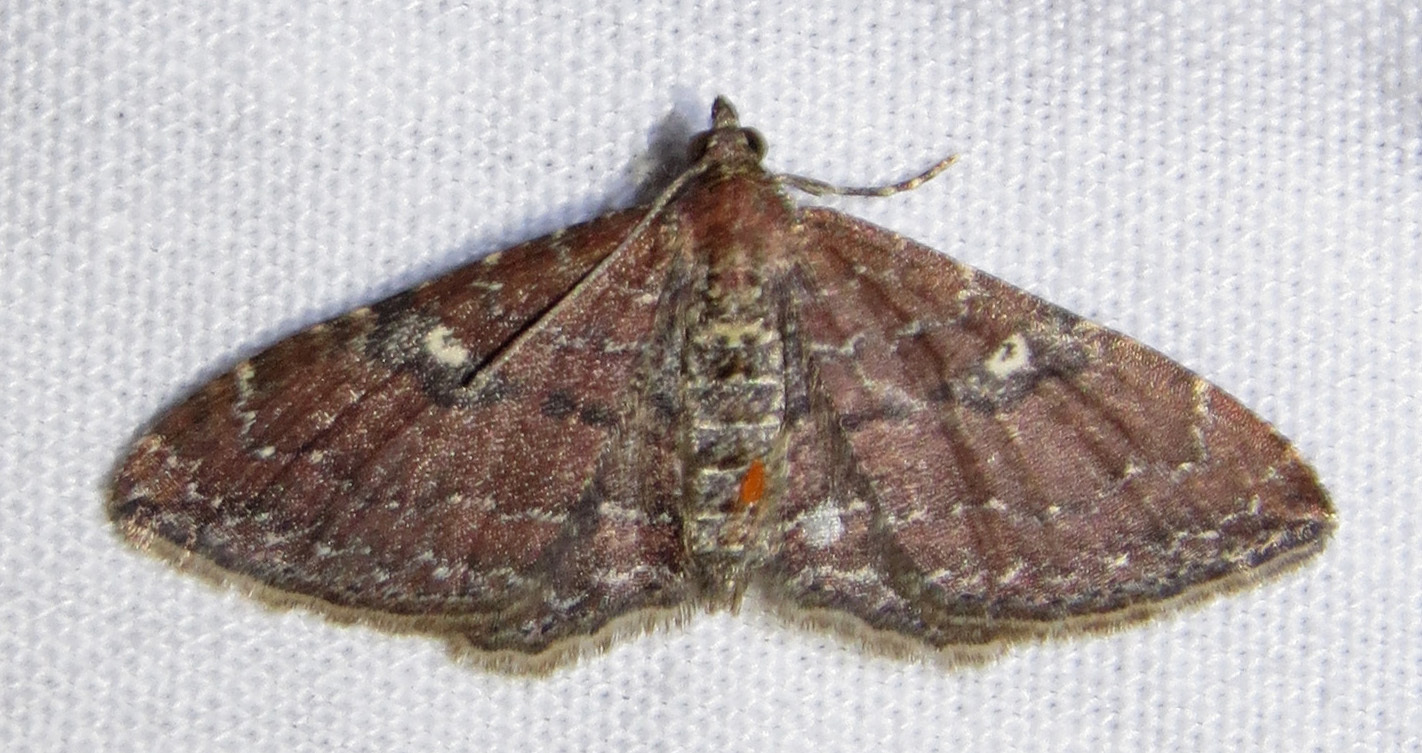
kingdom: Animalia
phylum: Arthropoda
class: Insecta
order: Lepidoptera
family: Geometridae
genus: Orthonama
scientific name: Orthonama obstipata
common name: The gem
